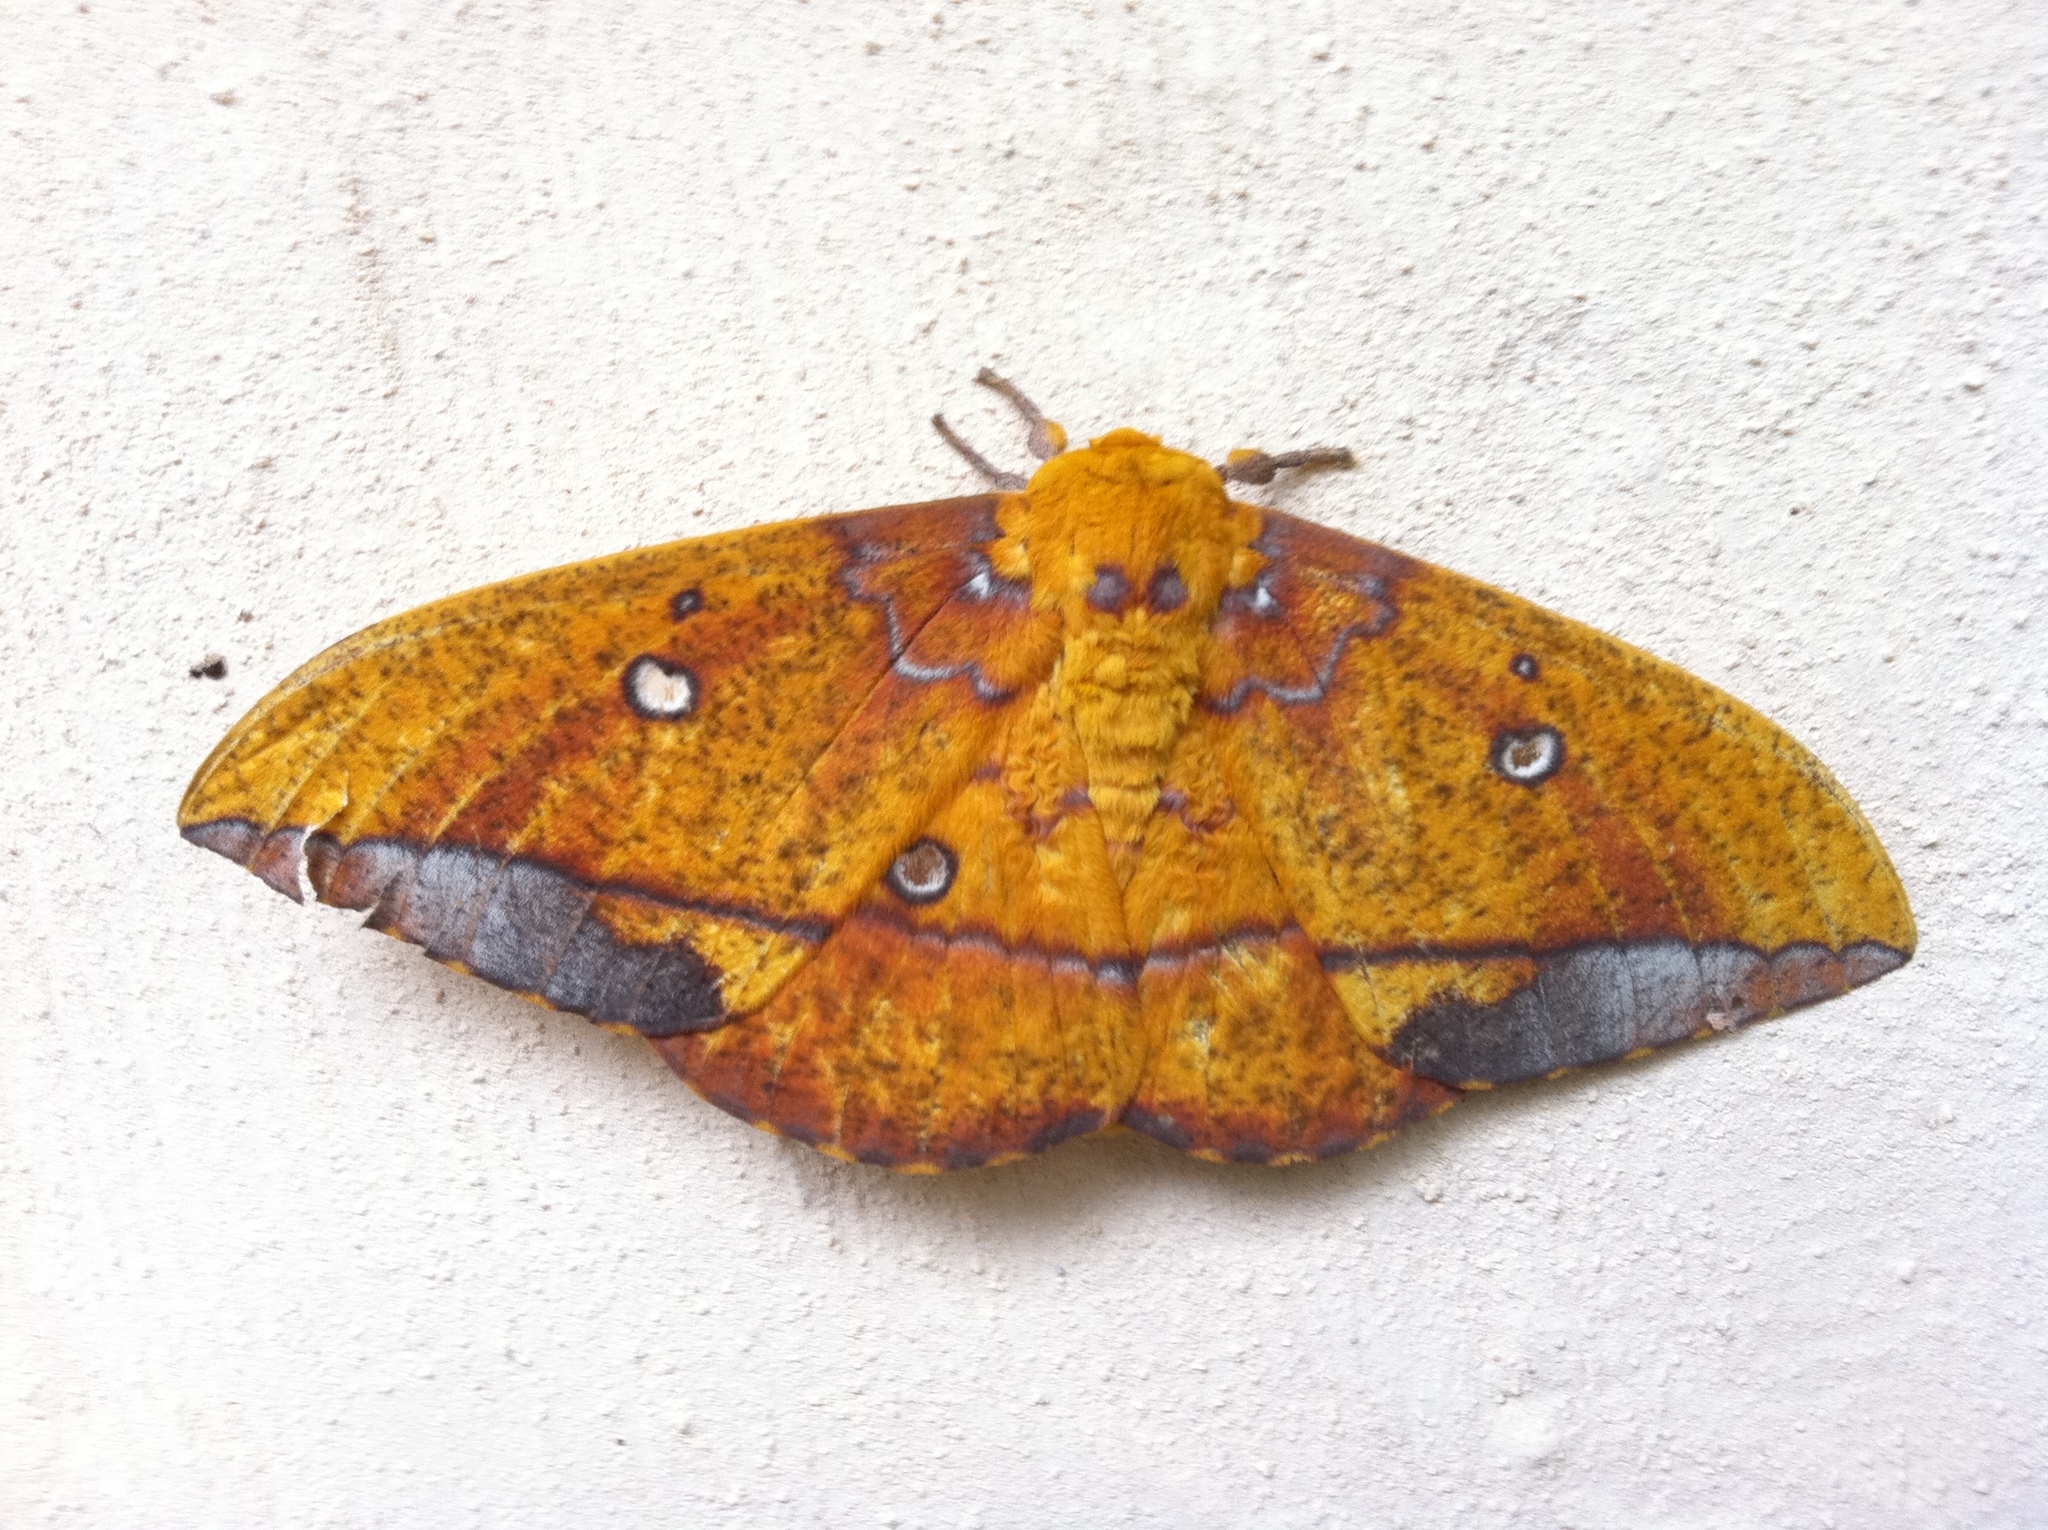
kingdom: Animalia
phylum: Arthropoda
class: Insecta
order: Lepidoptera
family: Saturniidae
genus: Eacles
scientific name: Eacles penelope
